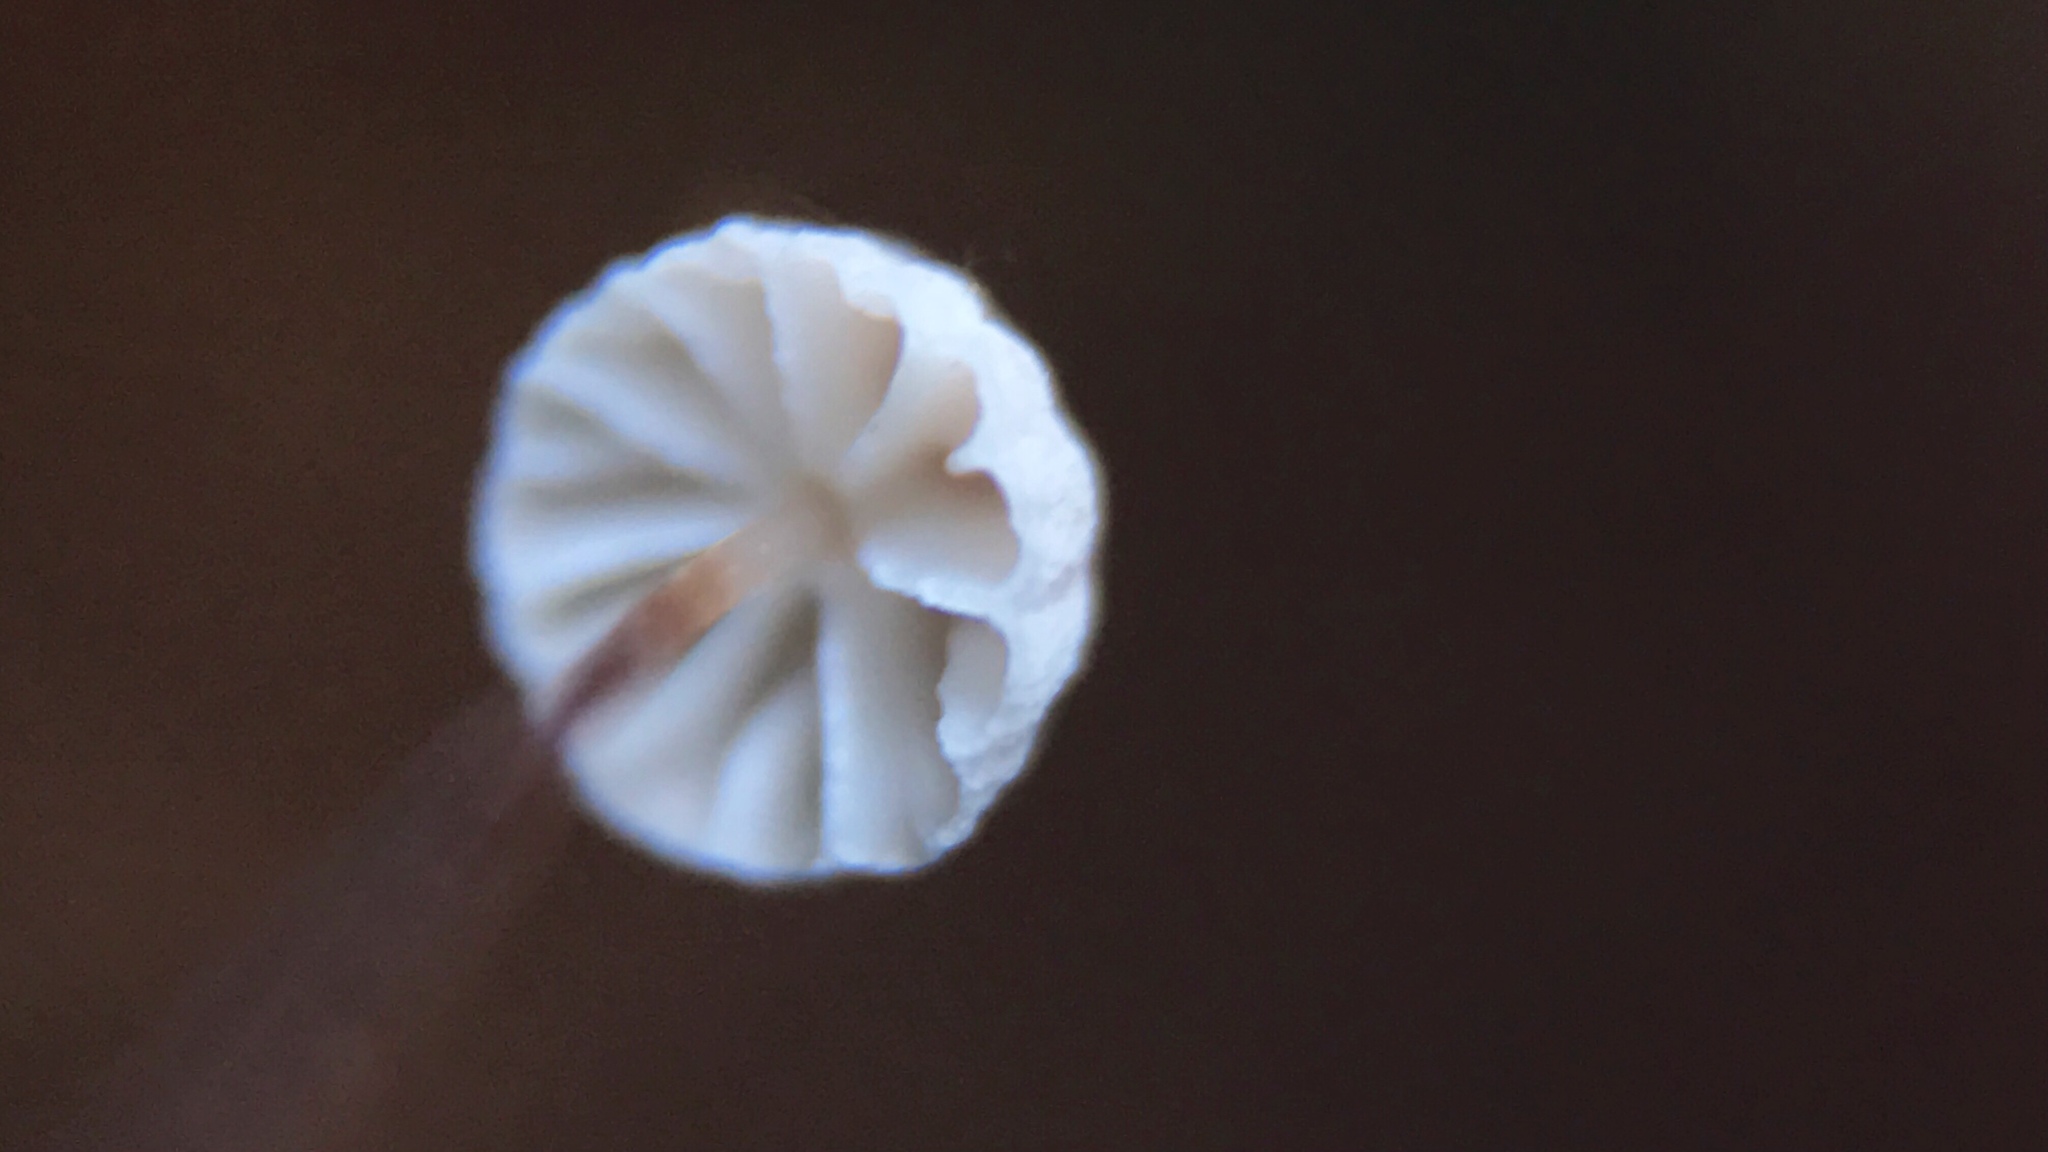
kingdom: Fungi
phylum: Basidiomycota
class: Agaricomycetes
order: Agaricales
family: Omphalotaceae
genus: Collybiopsis
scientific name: Collybiopsis quercophila
